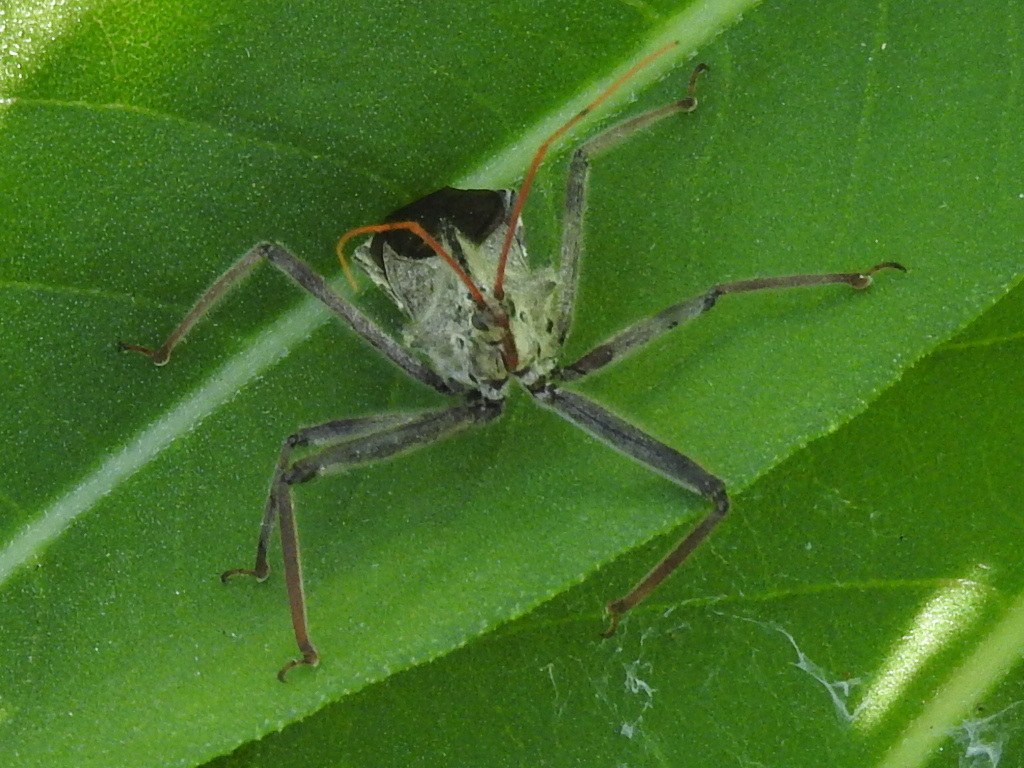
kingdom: Animalia
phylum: Arthropoda
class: Insecta
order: Hemiptera
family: Reduviidae
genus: Arilus
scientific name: Arilus cristatus
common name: North american wheel bug
